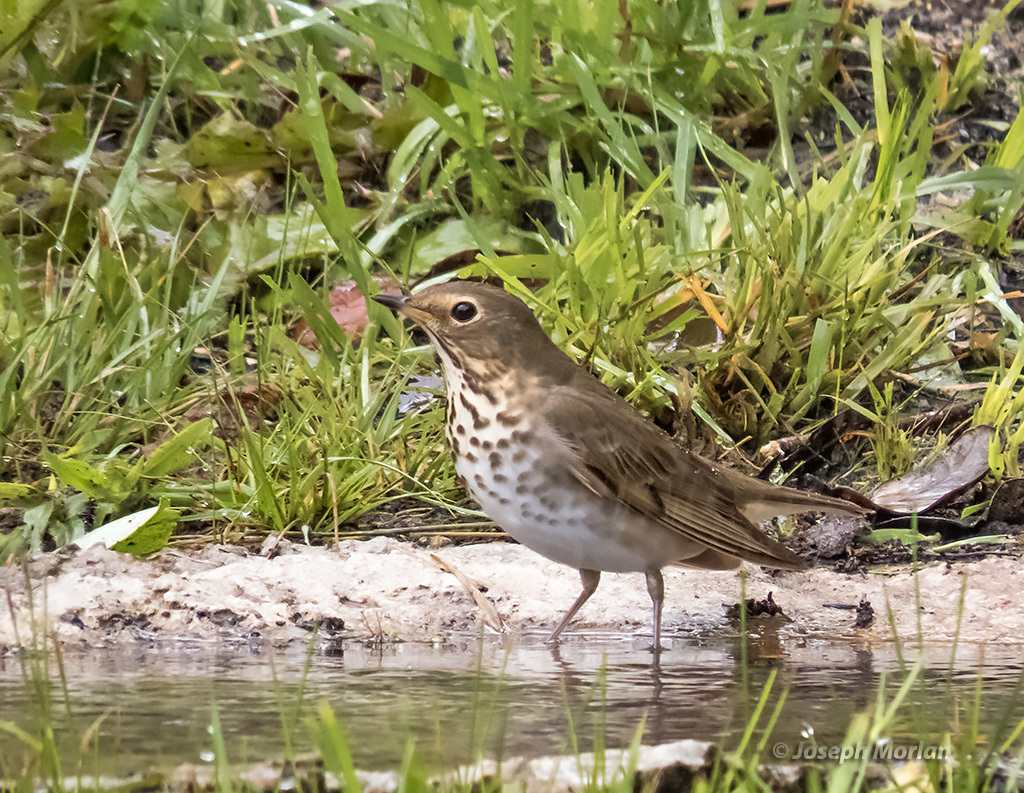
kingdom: Animalia
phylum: Chordata
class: Aves
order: Passeriformes
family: Turdidae
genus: Catharus
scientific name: Catharus ustulatus
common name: Swainson's thrush
